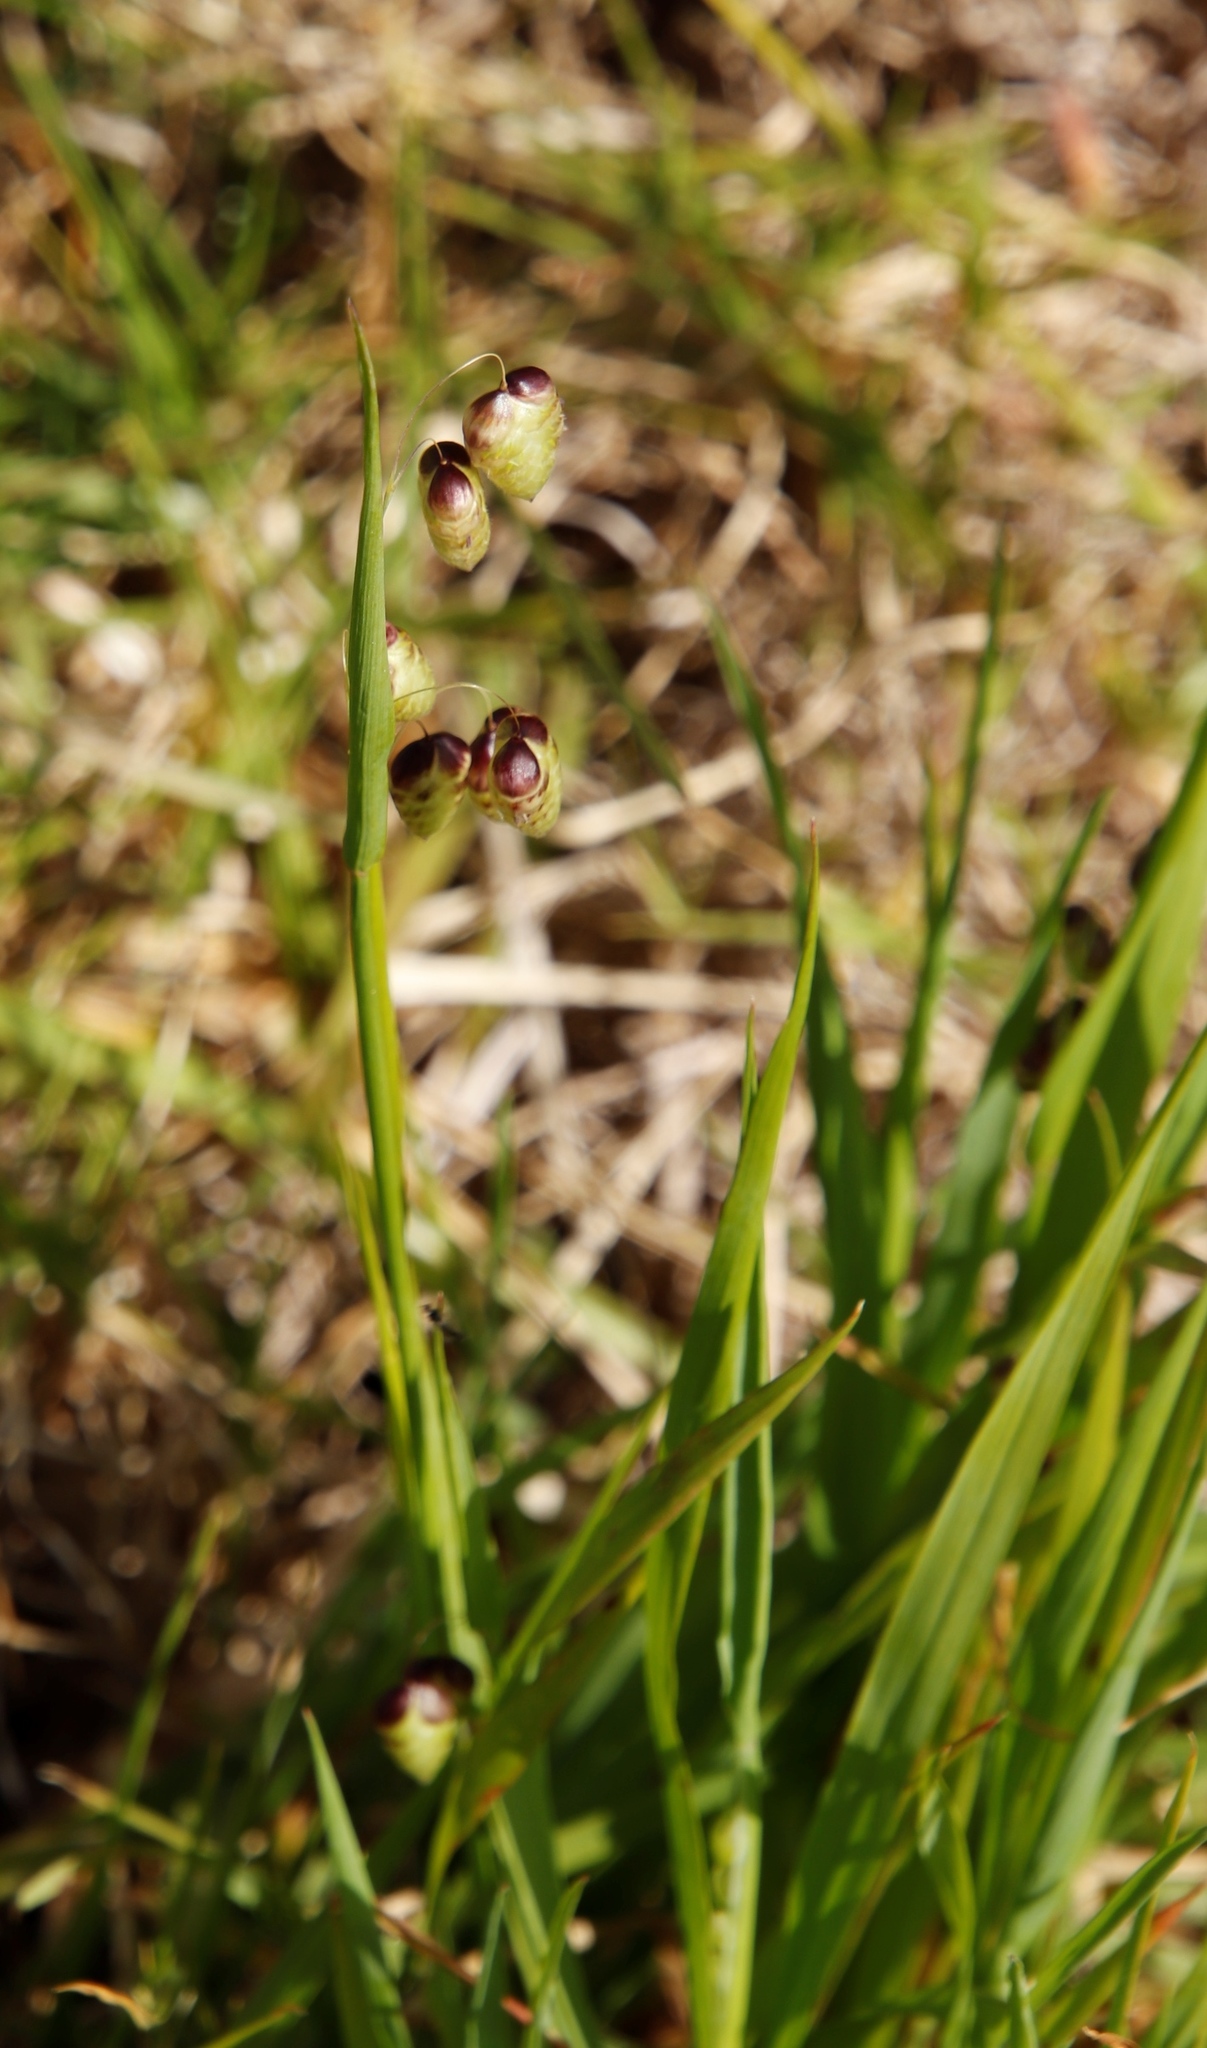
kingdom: Plantae
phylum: Tracheophyta
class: Liliopsida
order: Poales
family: Poaceae
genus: Briza
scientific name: Briza maxima
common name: Big quakinggrass
